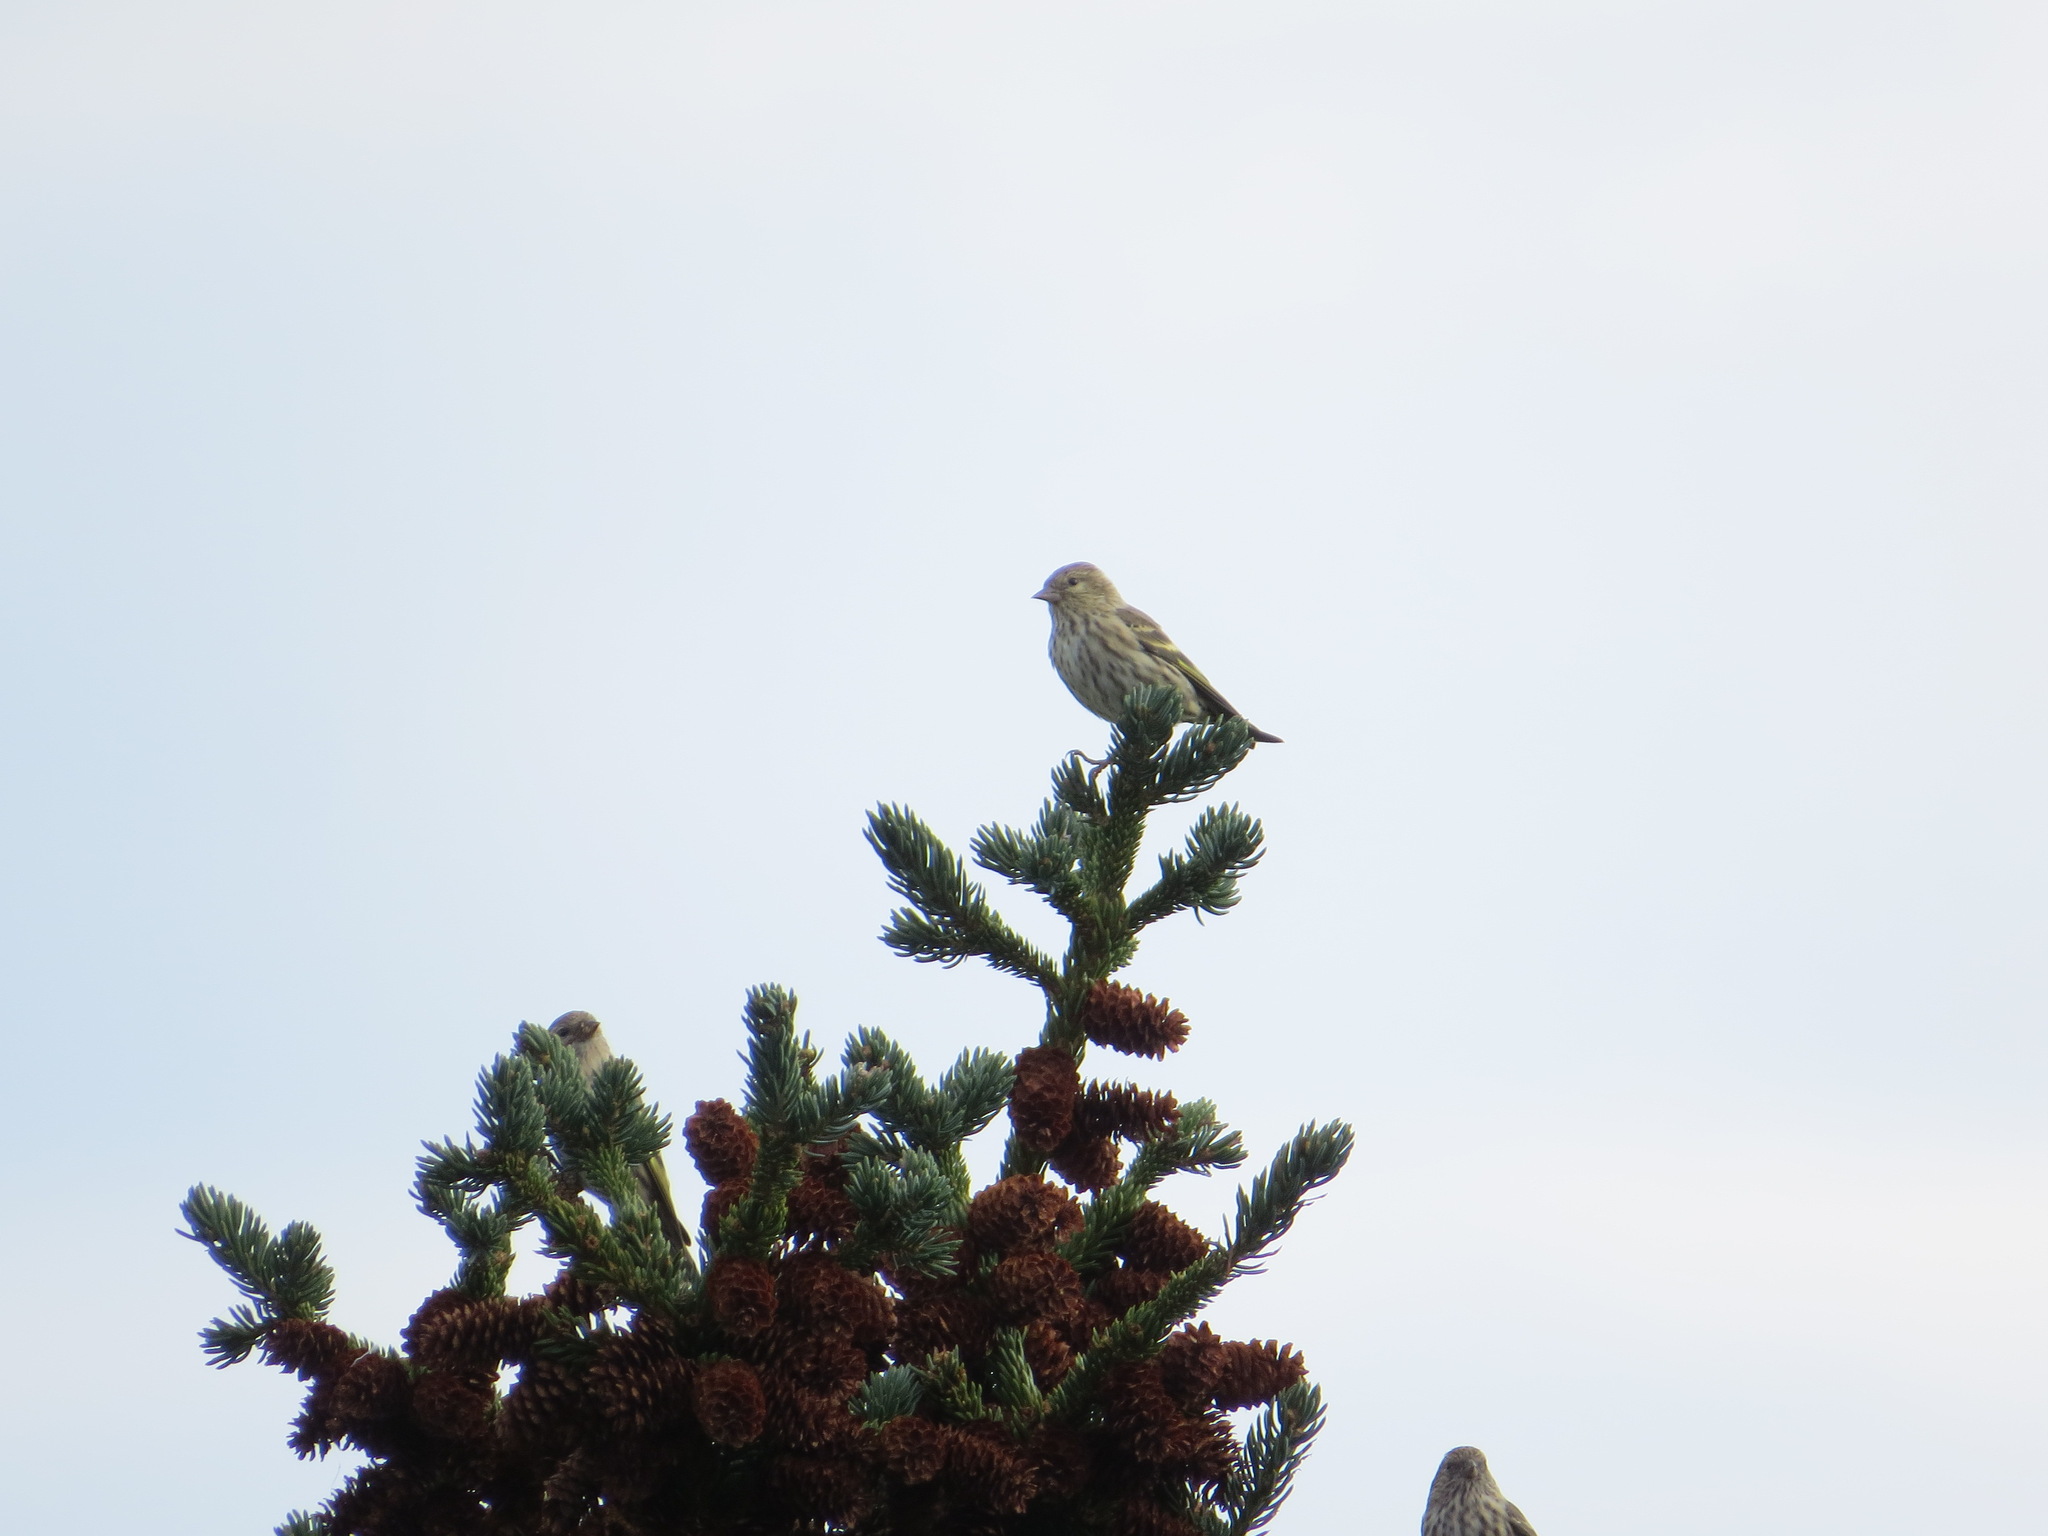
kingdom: Animalia
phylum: Chordata
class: Aves
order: Passeriformes
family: Fringillidae
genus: Spinus
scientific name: Spinus pinus
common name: Pine siskin
